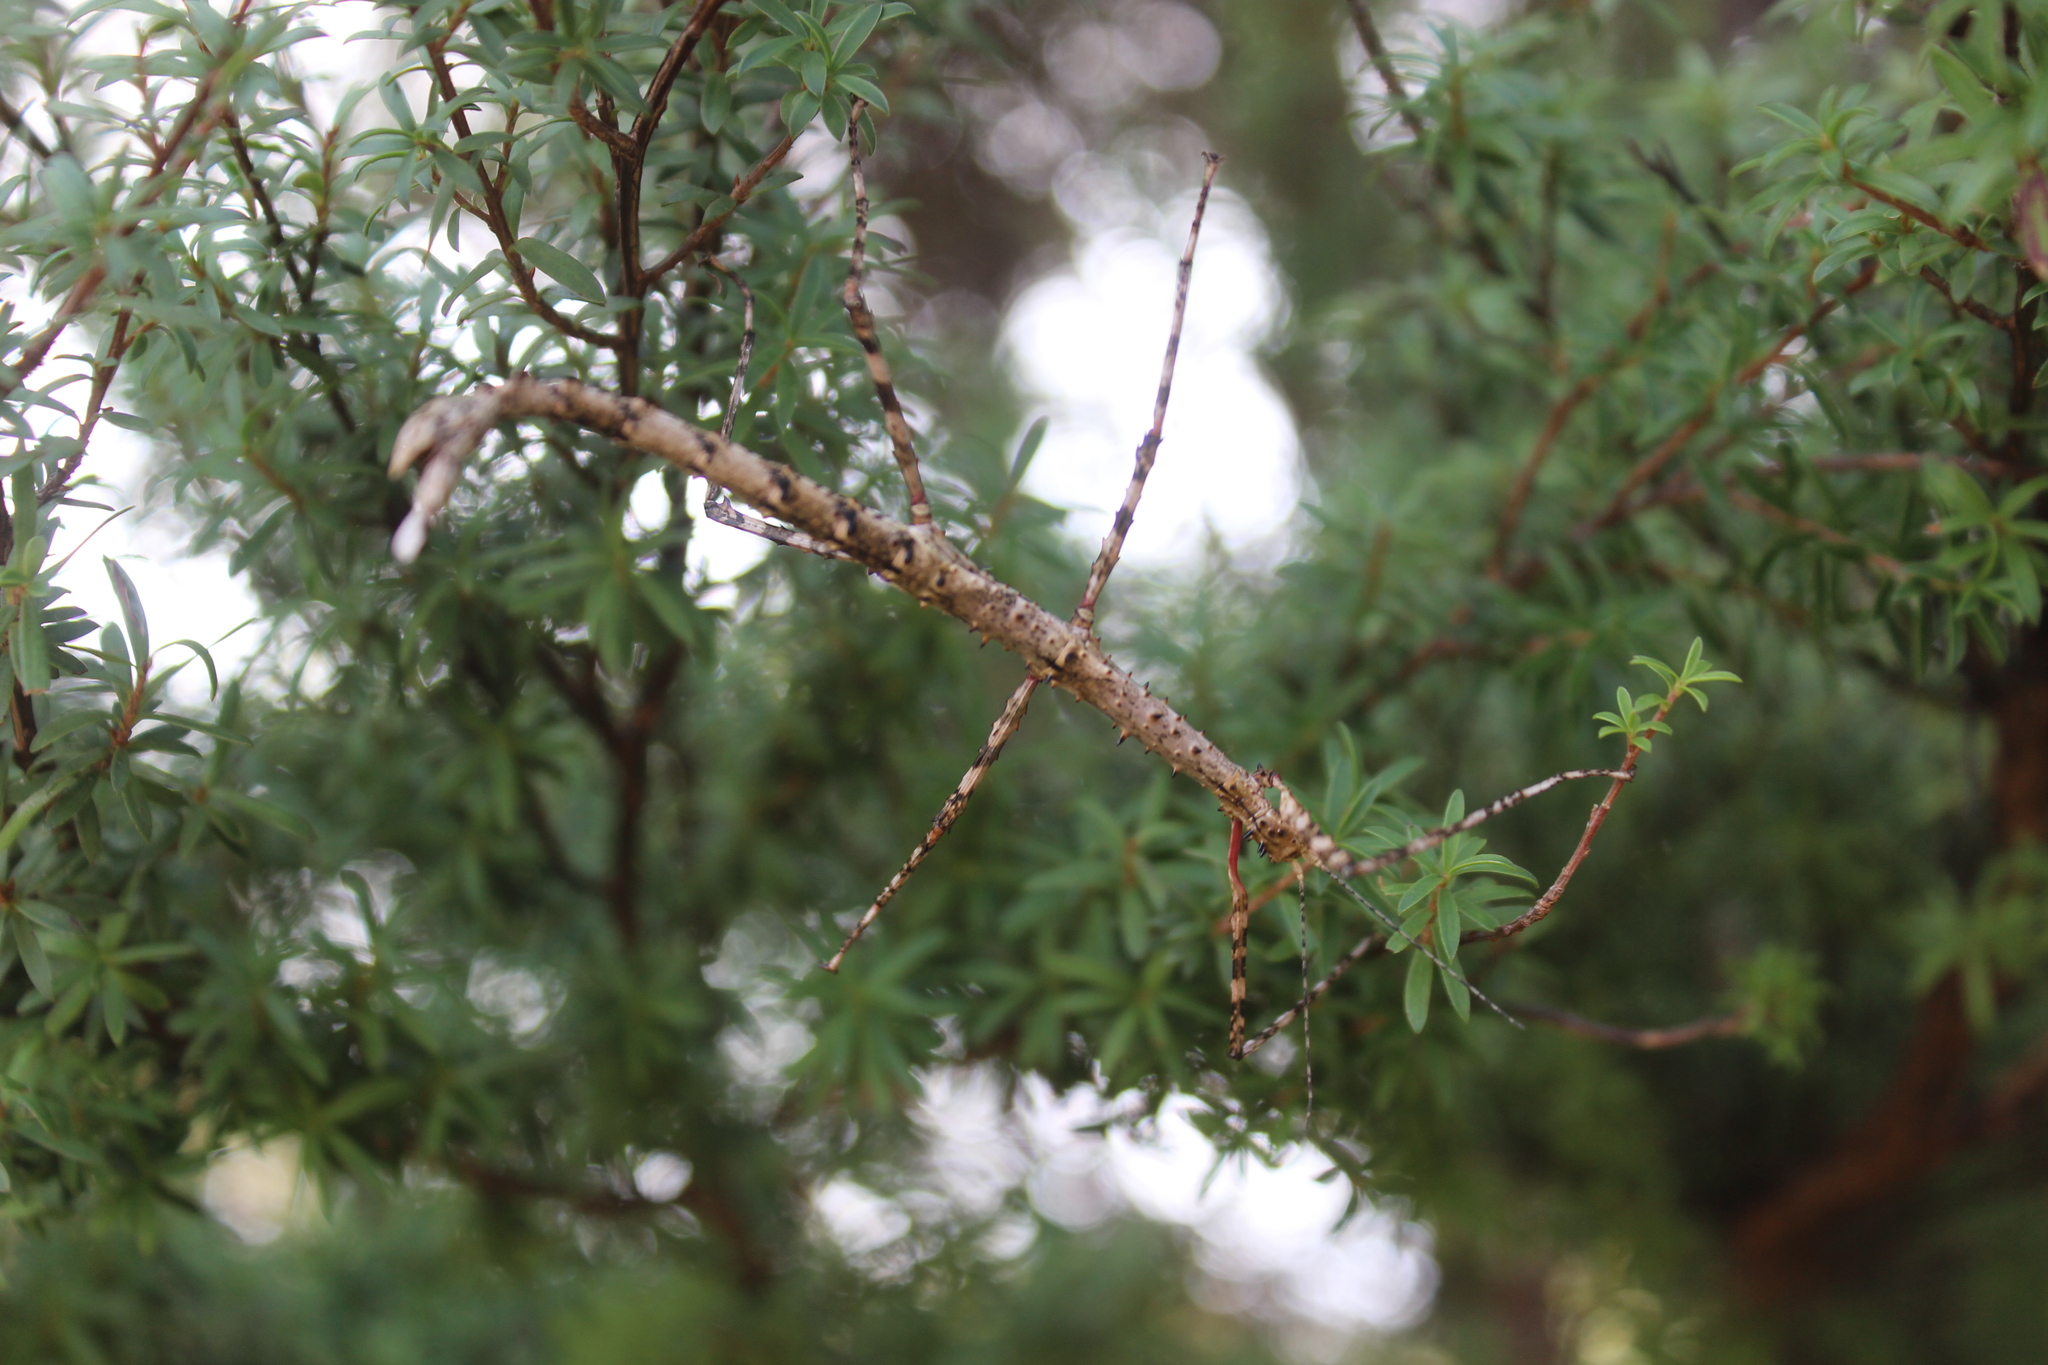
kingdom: Animalia
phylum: Arthropoda
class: Insecta
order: Phasmida
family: Phasmatidae
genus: Acanthoxyla
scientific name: Acanthoxyla prasina
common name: Black-spined stick insect
